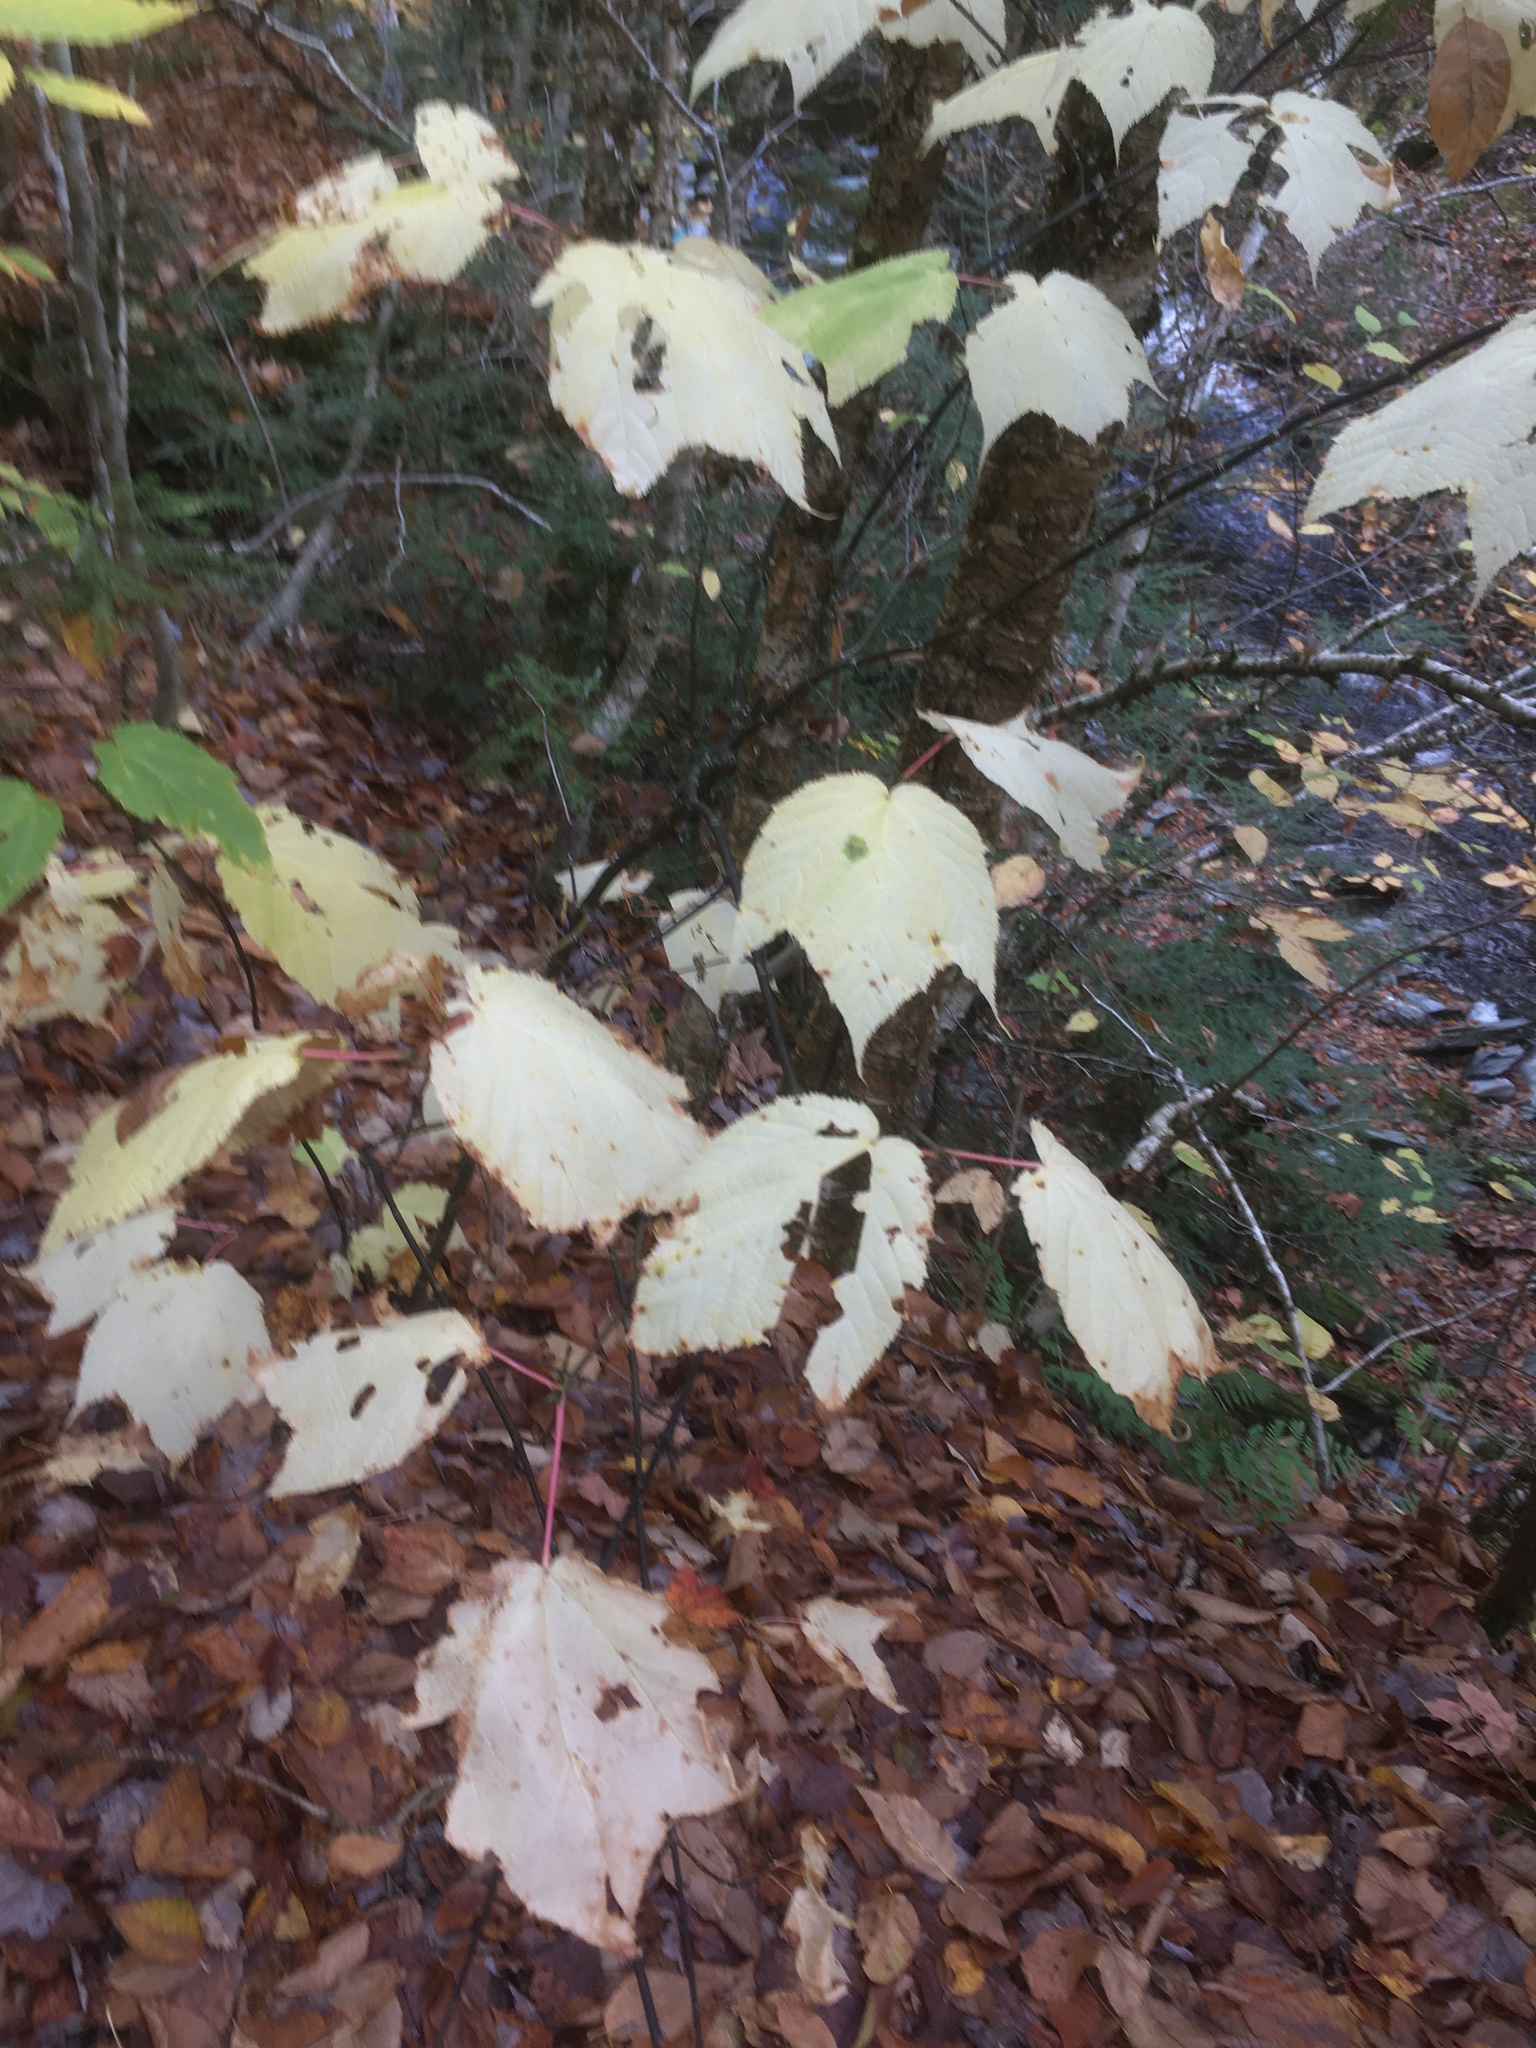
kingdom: Plantae
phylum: Tracheophyta
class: Magnoliopsida
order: Sapindales
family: Sapindaceae
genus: Acer
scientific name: Acer pensylvanicum
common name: Moosewood
